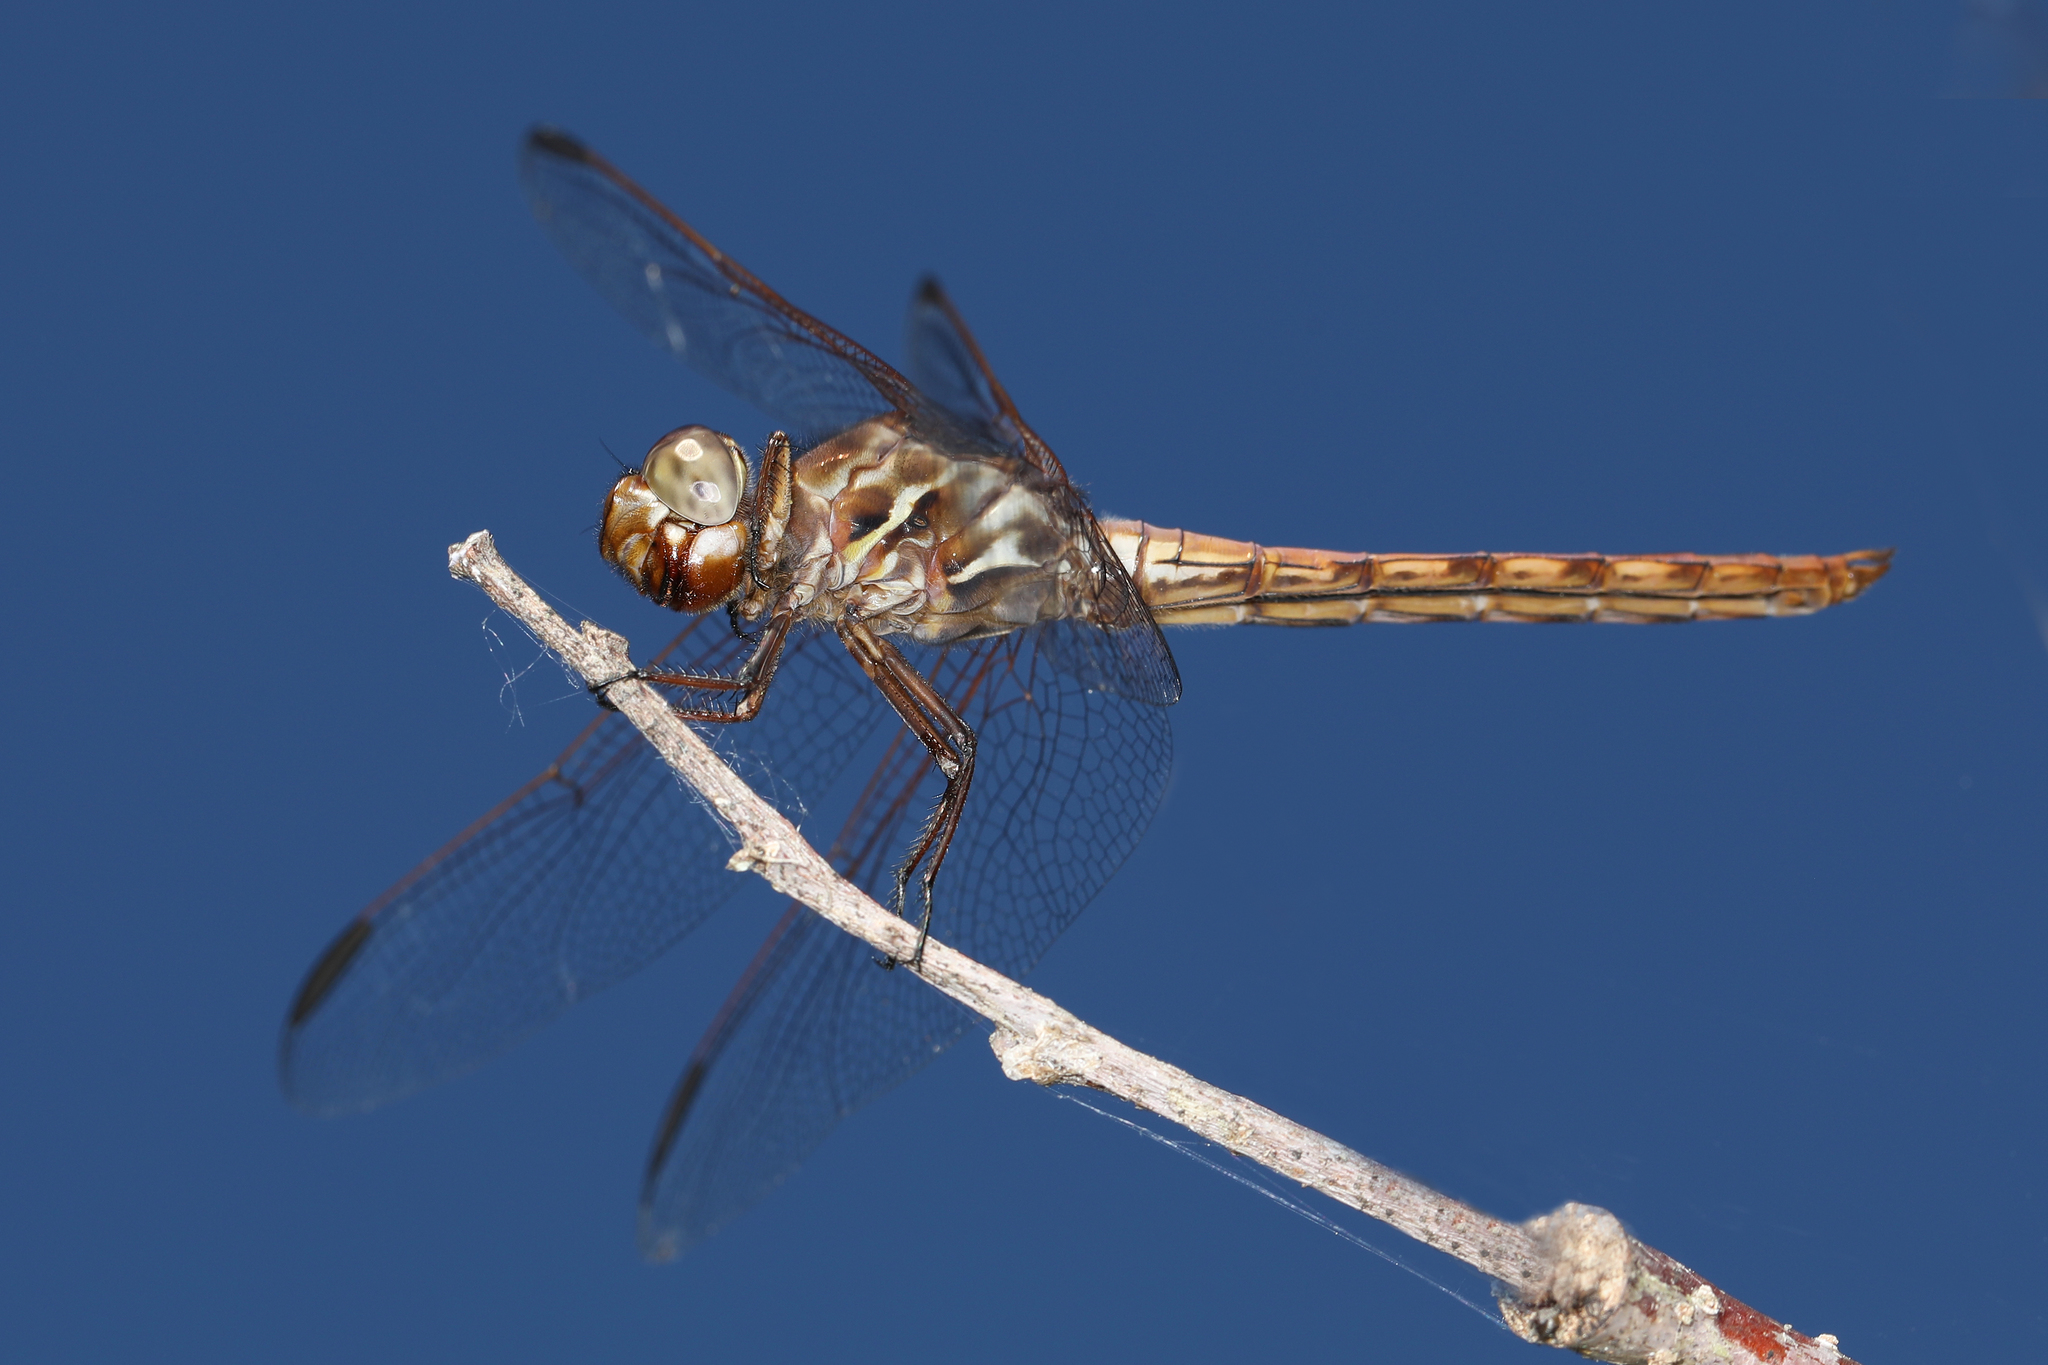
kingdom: Animalia
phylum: Arthropoda
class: Insecta
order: Odonata
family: Libellulidae
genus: Orthemis
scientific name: Orthemis ferruginea
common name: Roseate skimmer
